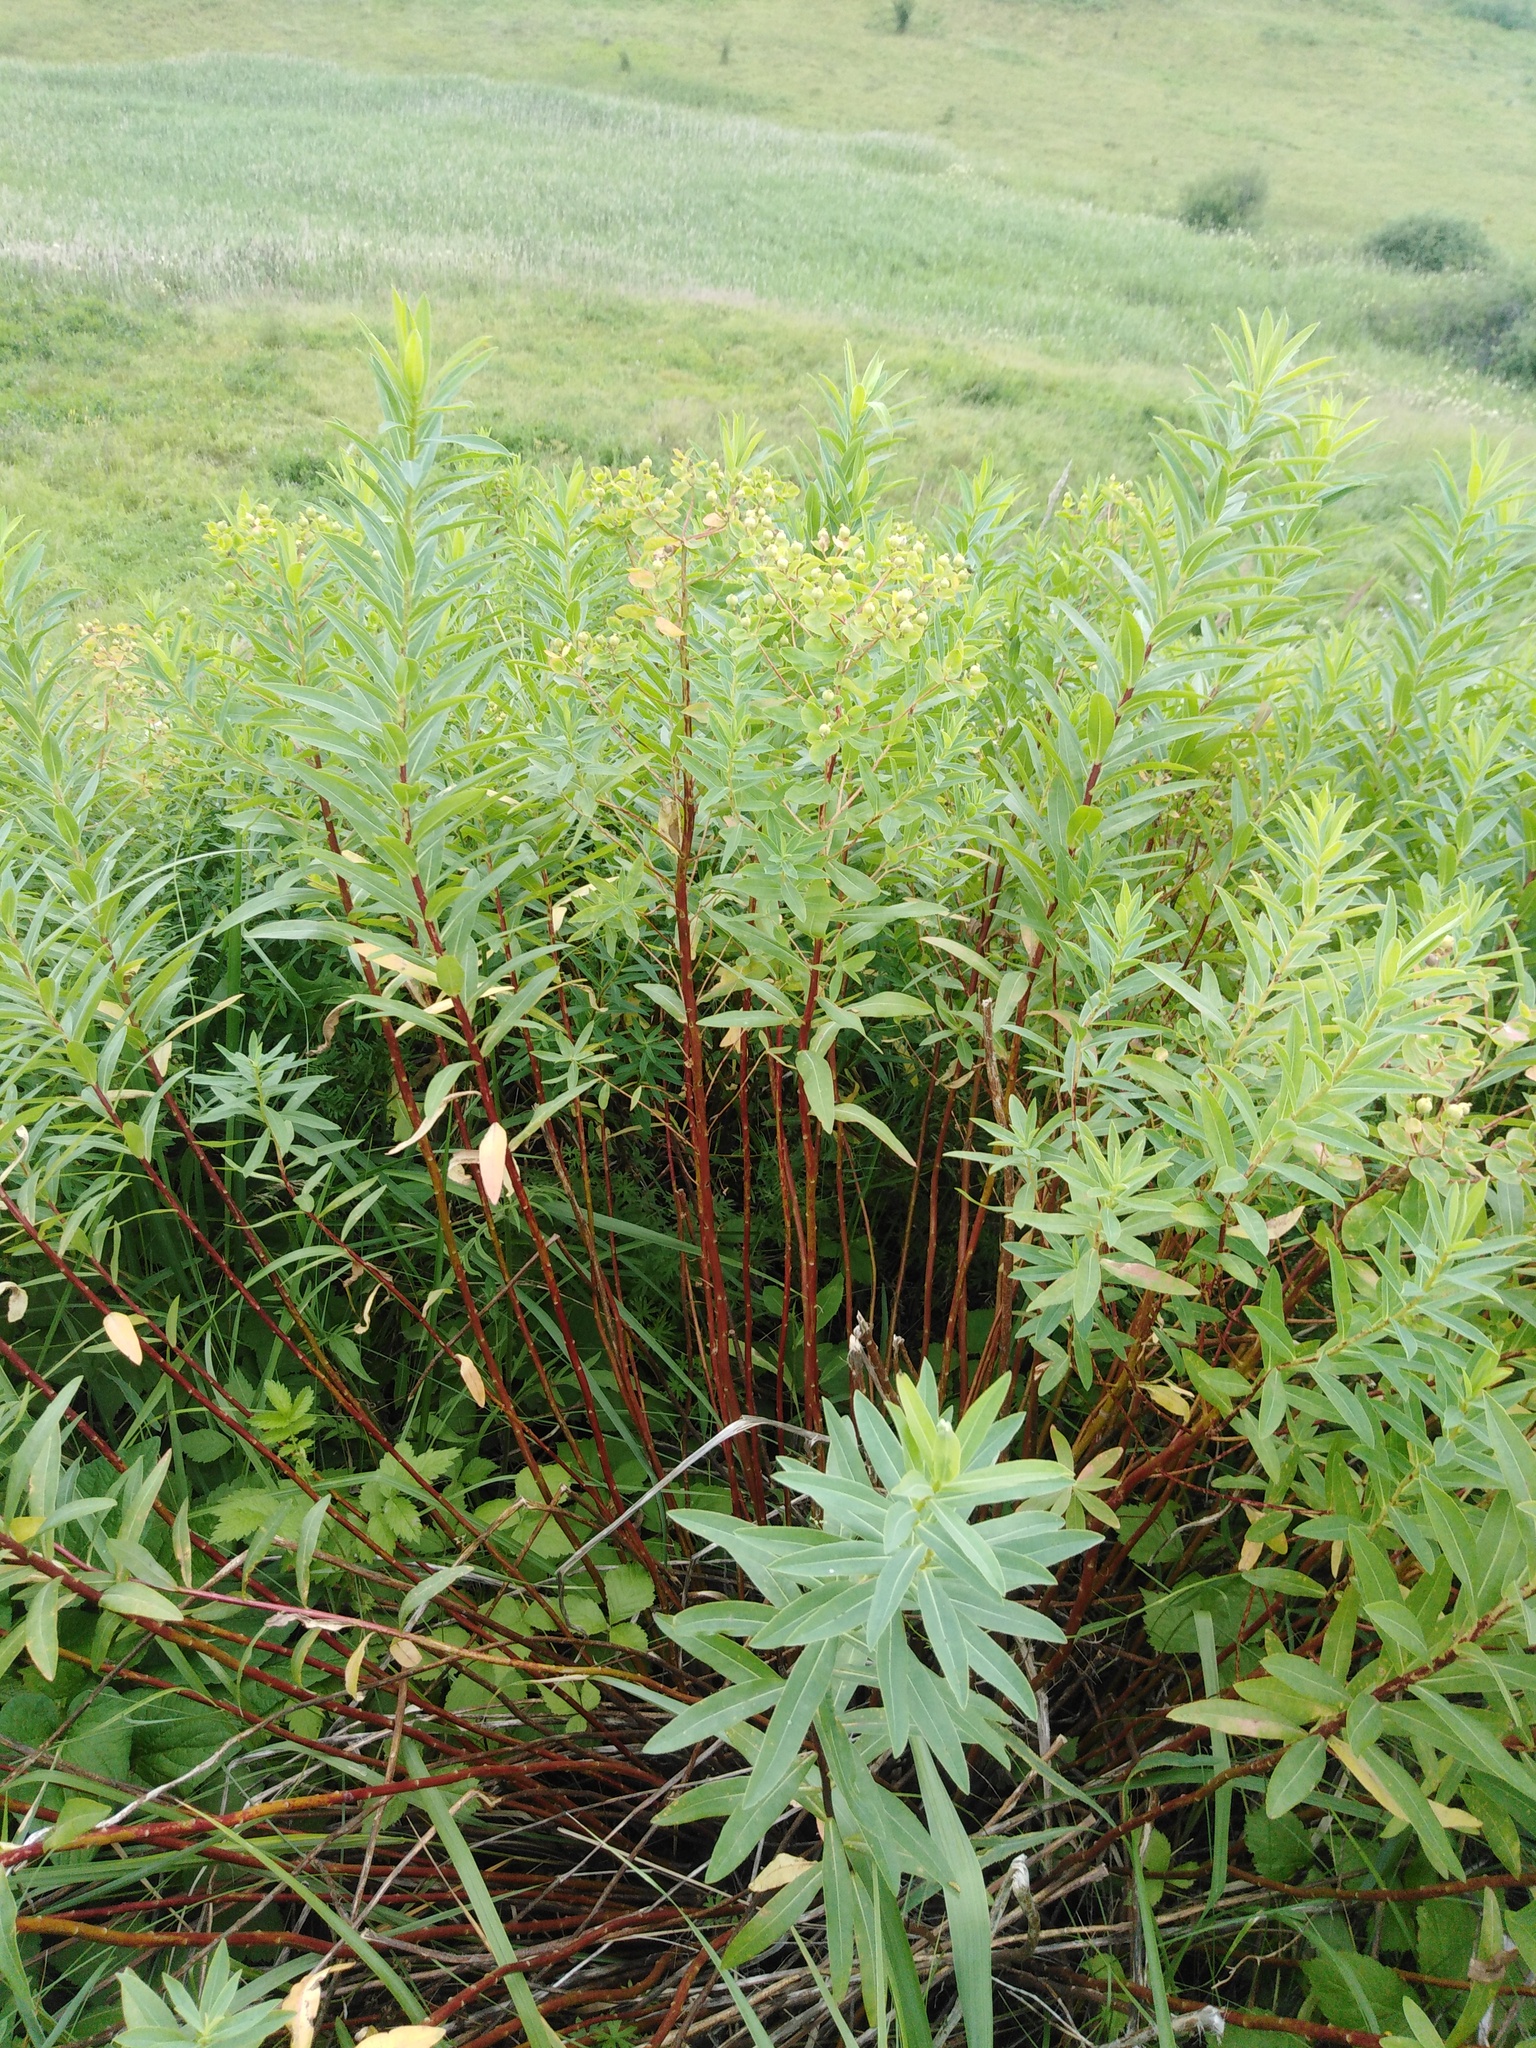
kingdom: Plantae
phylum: Tracheophyta
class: Magnoliopsida
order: Malpighiales
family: Euphorbiaceae
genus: Euphorbia
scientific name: Euphorbia semivillosa
